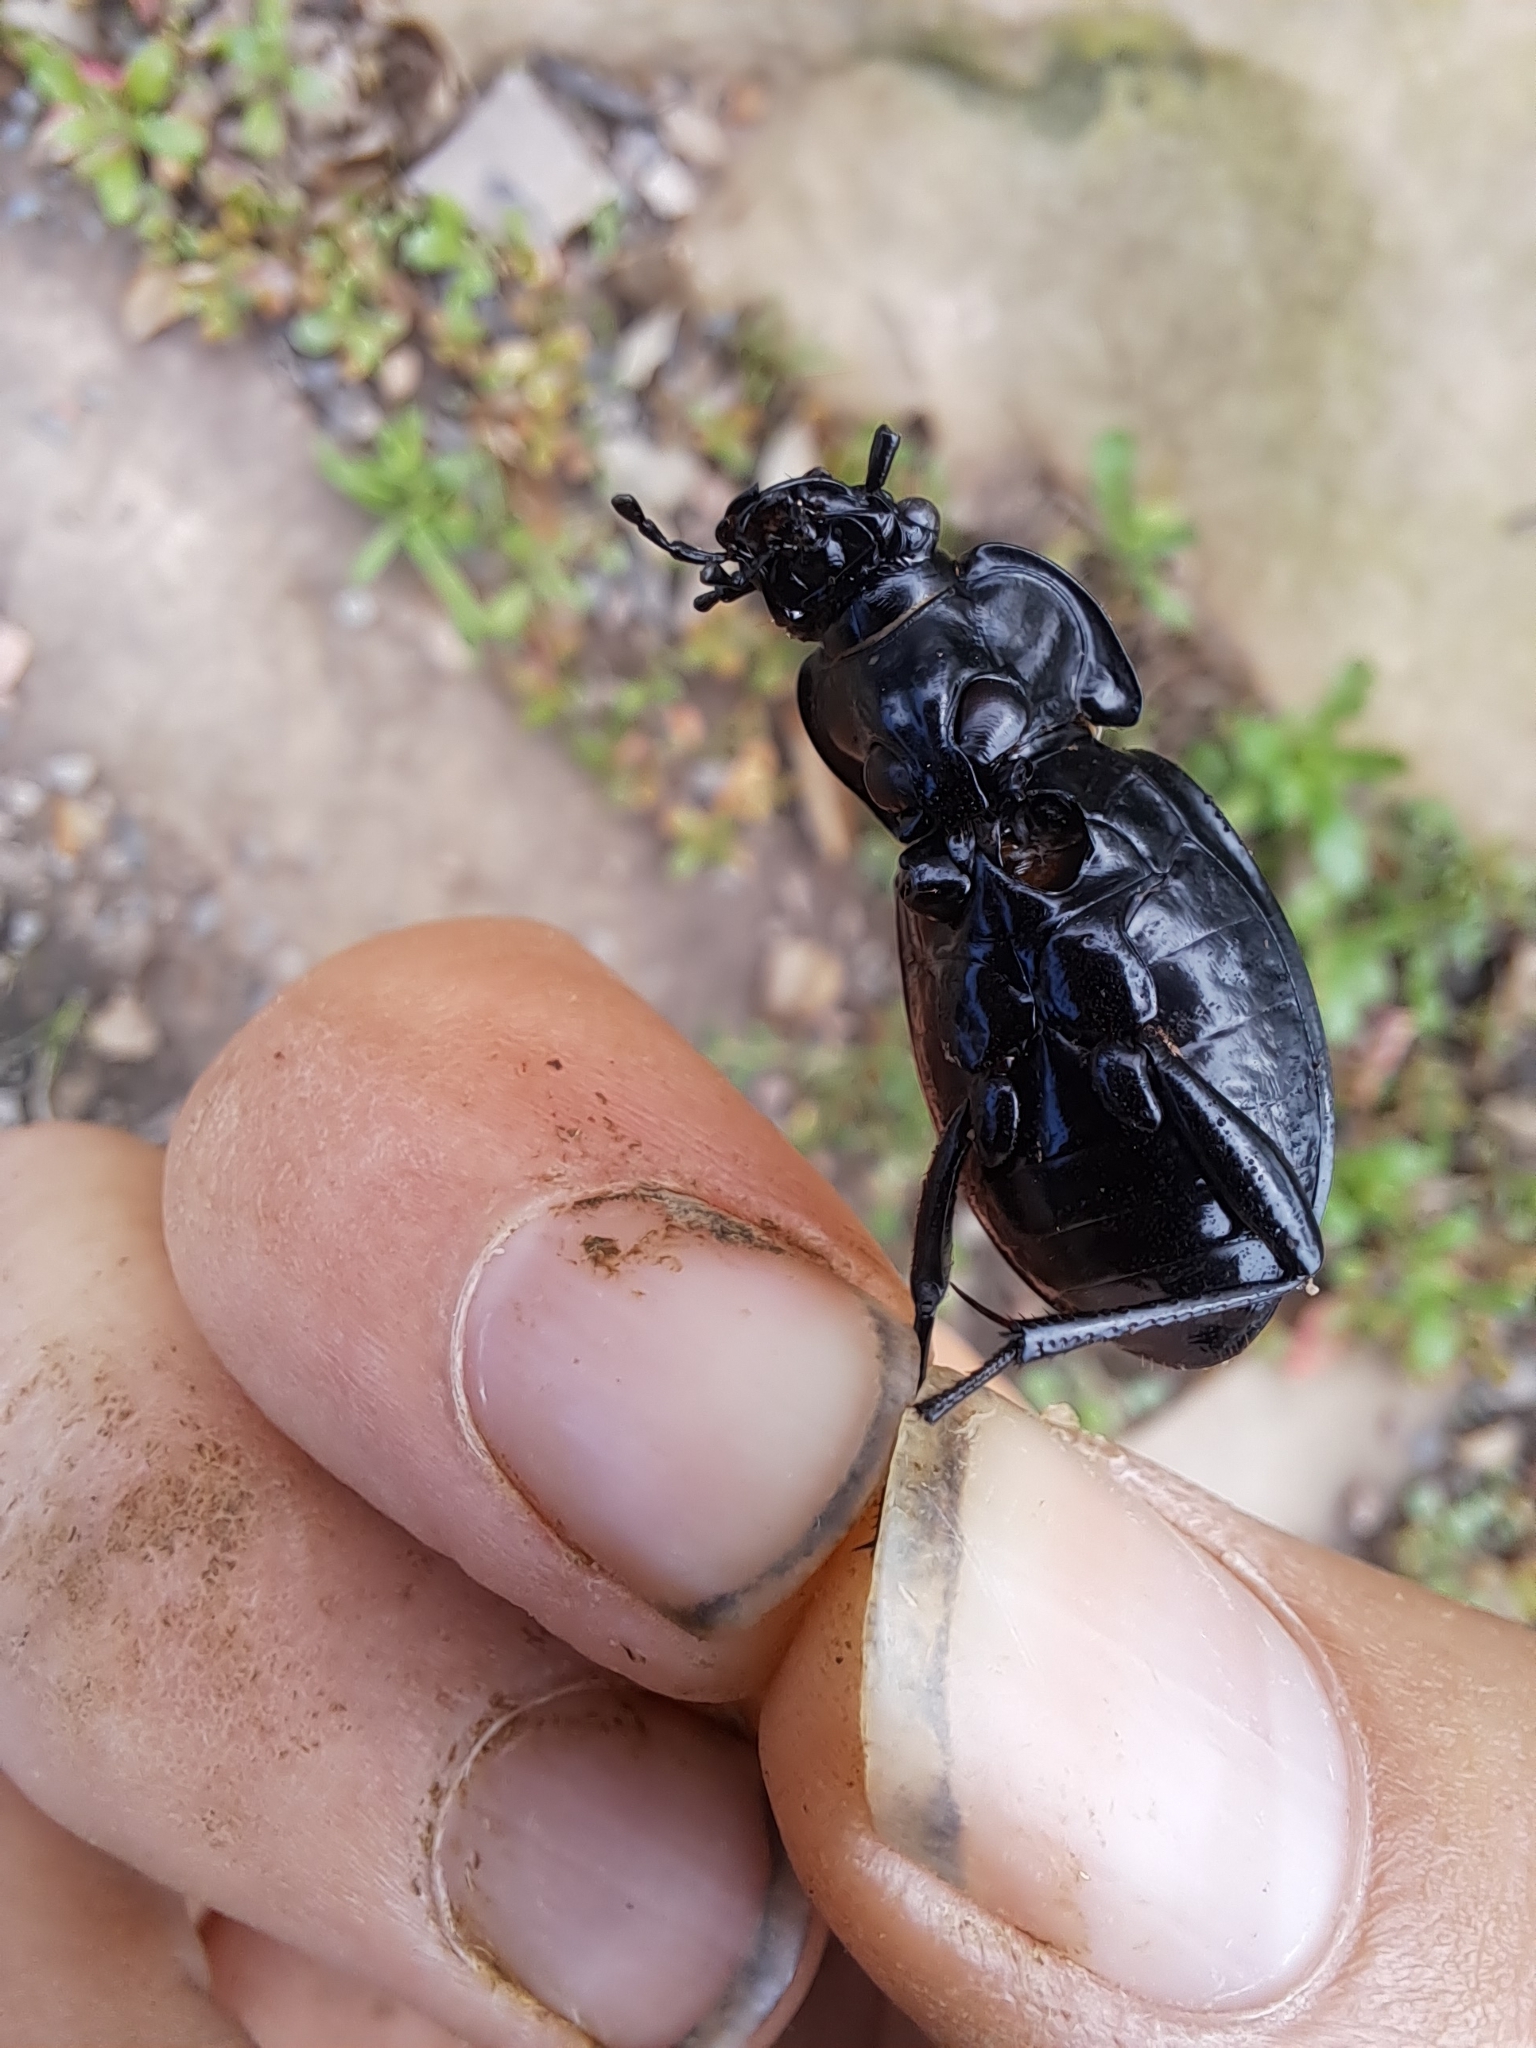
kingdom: Animalia
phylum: Arthropoda
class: Insecta
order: Coleoptera
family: Carabidae
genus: Carabus
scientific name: Carabus nemoralis
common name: European ground beetle
